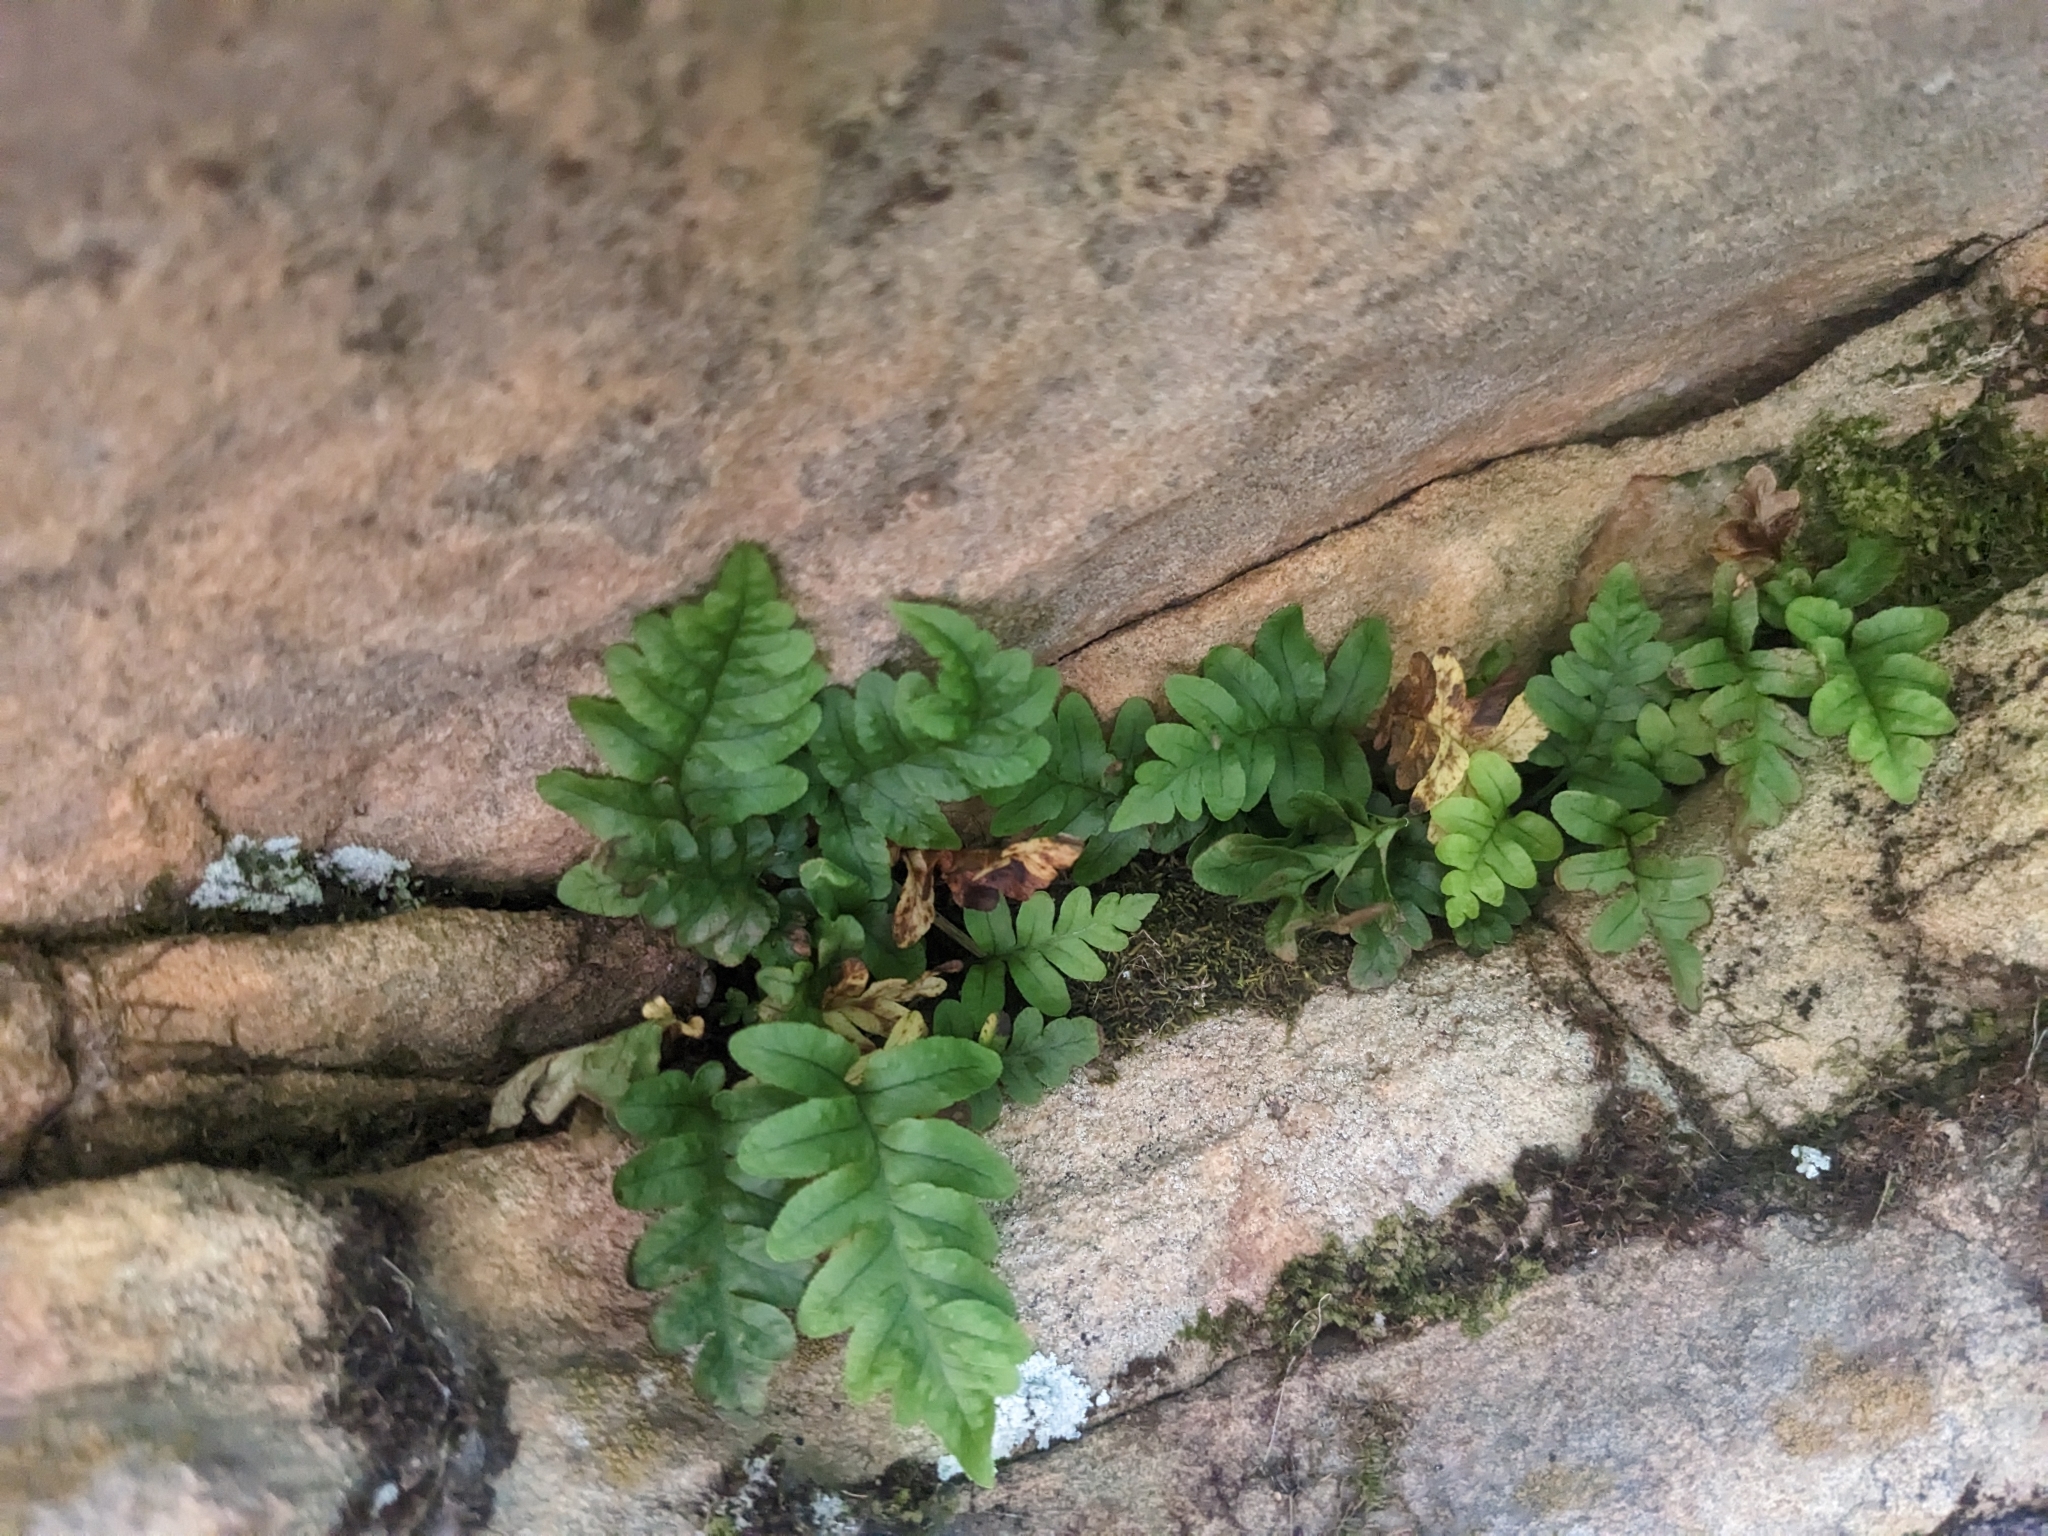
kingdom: Plantae
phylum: Tracheophyta
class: Polypodiopsida
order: Polypodiales
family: Polypodiaceae
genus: Polypodium
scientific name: Polypodium hesperium
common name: Western polypody
